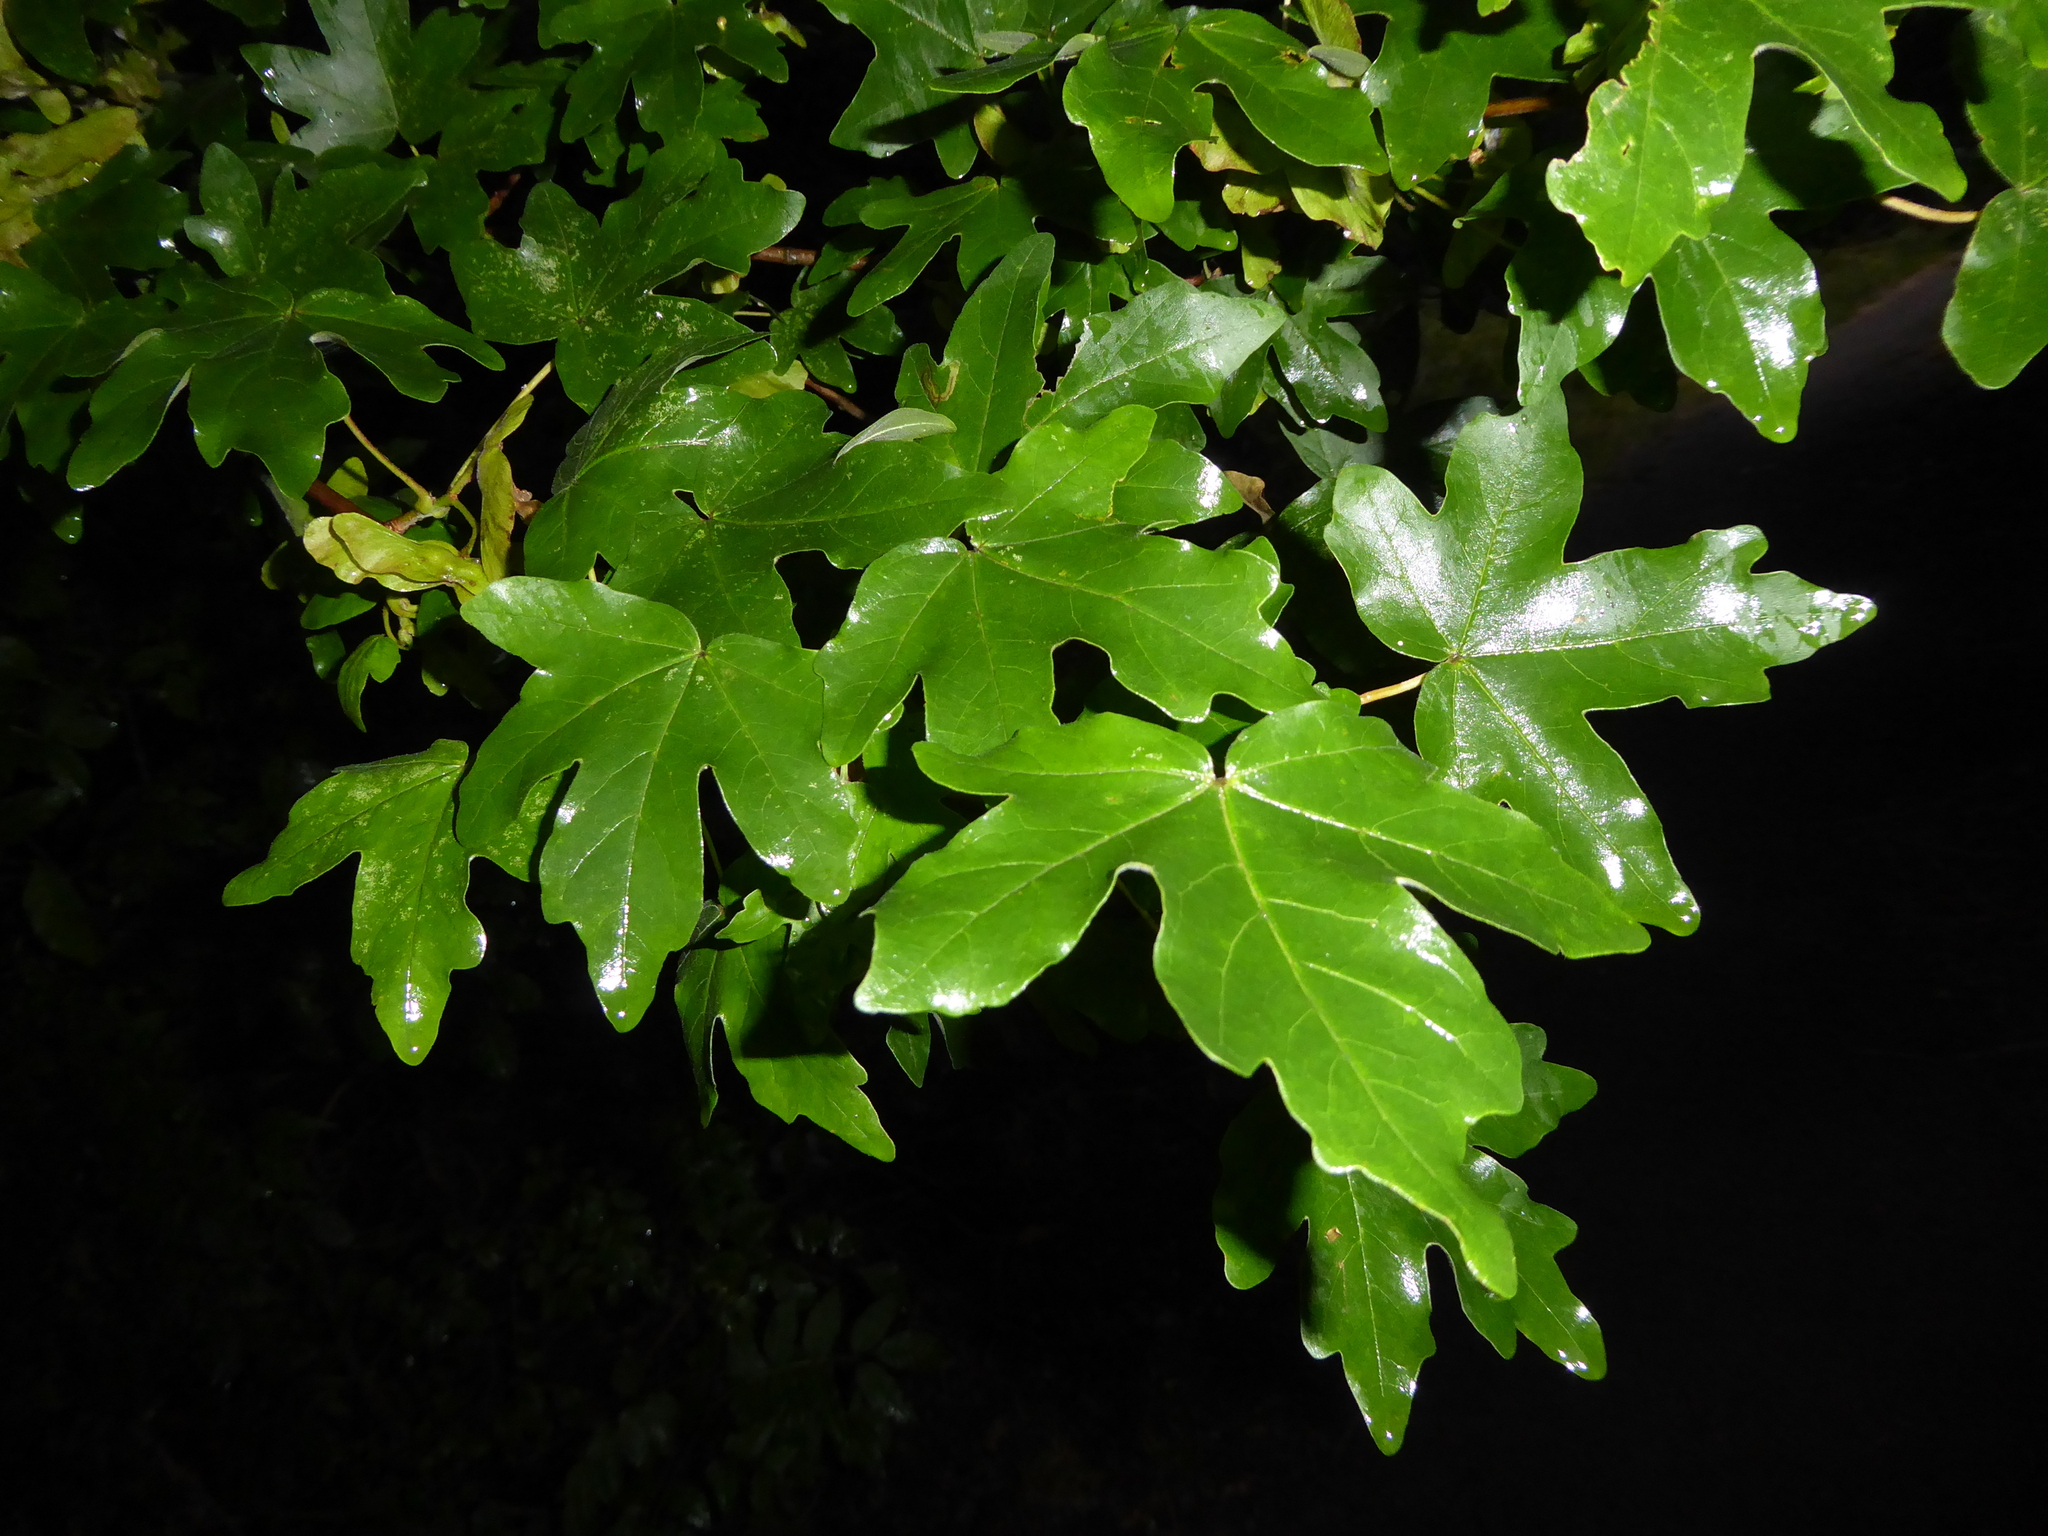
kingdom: Plantae
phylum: Tracheophyta
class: Magnoliopsida
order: Sapindales
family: Sapindaceae
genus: Acer
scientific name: Acer campestre
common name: Field maple
